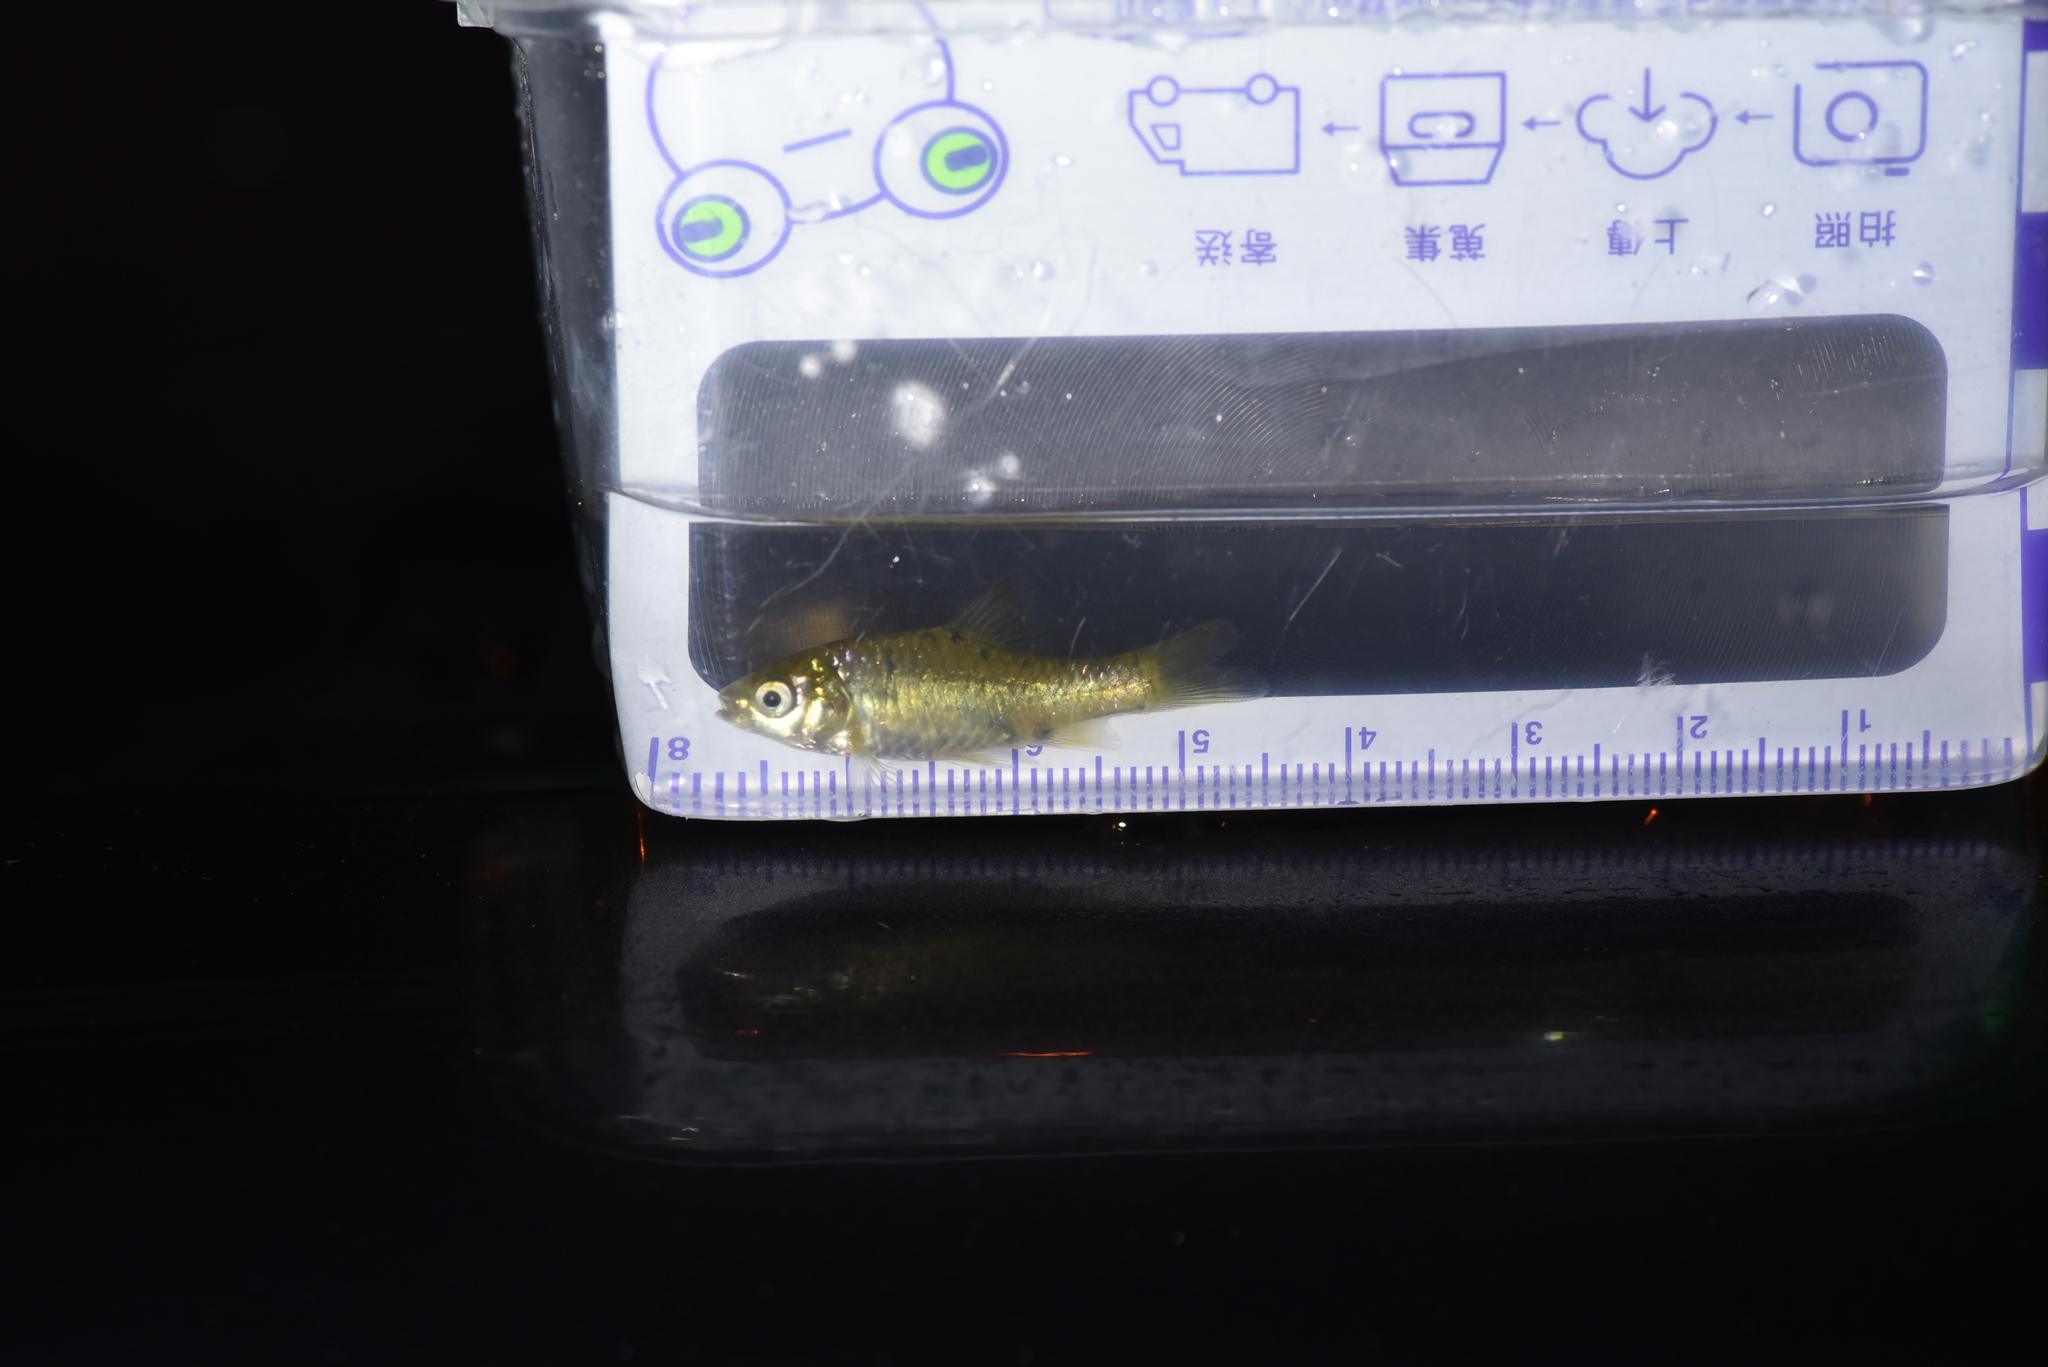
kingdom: Animalia
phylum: Chordata
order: Cypriniformes
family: Cyprinidae
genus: Barbodes
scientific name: Barbodes semifasciolatus
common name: Gold barb
